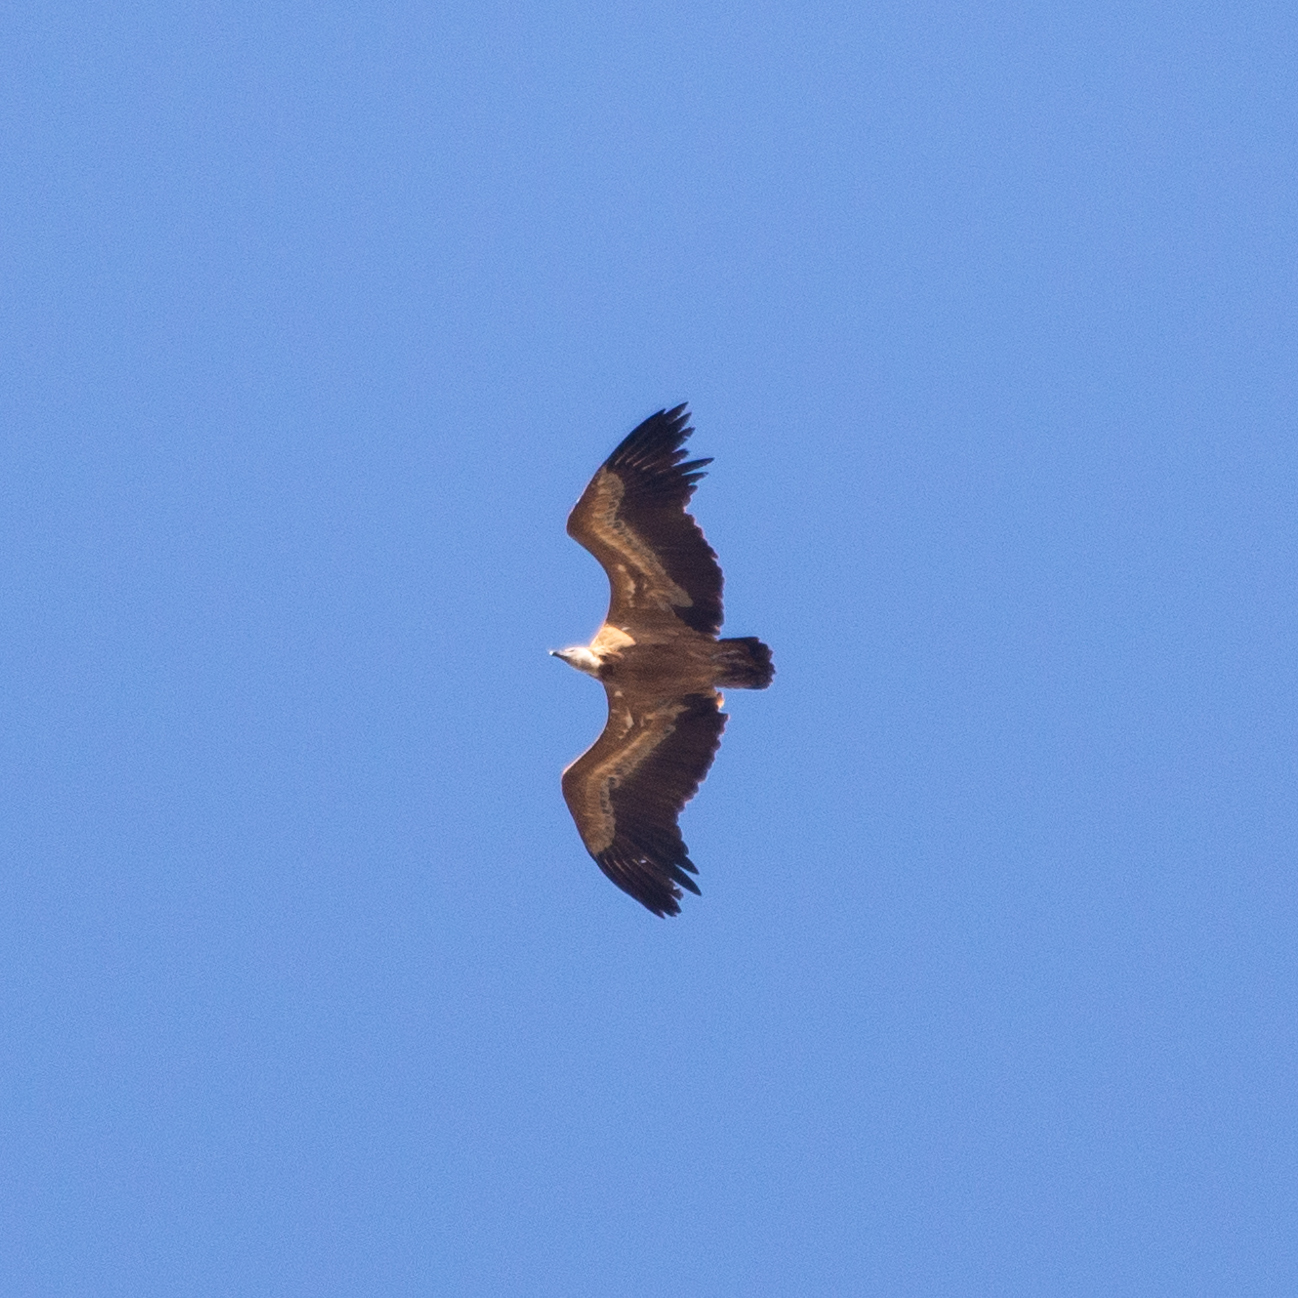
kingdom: Animalia
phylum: Chordata
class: Aves
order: Accipitriformes
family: Accipitridae
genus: Gyps
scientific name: Gyps fulvus
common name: Griffon vulture
